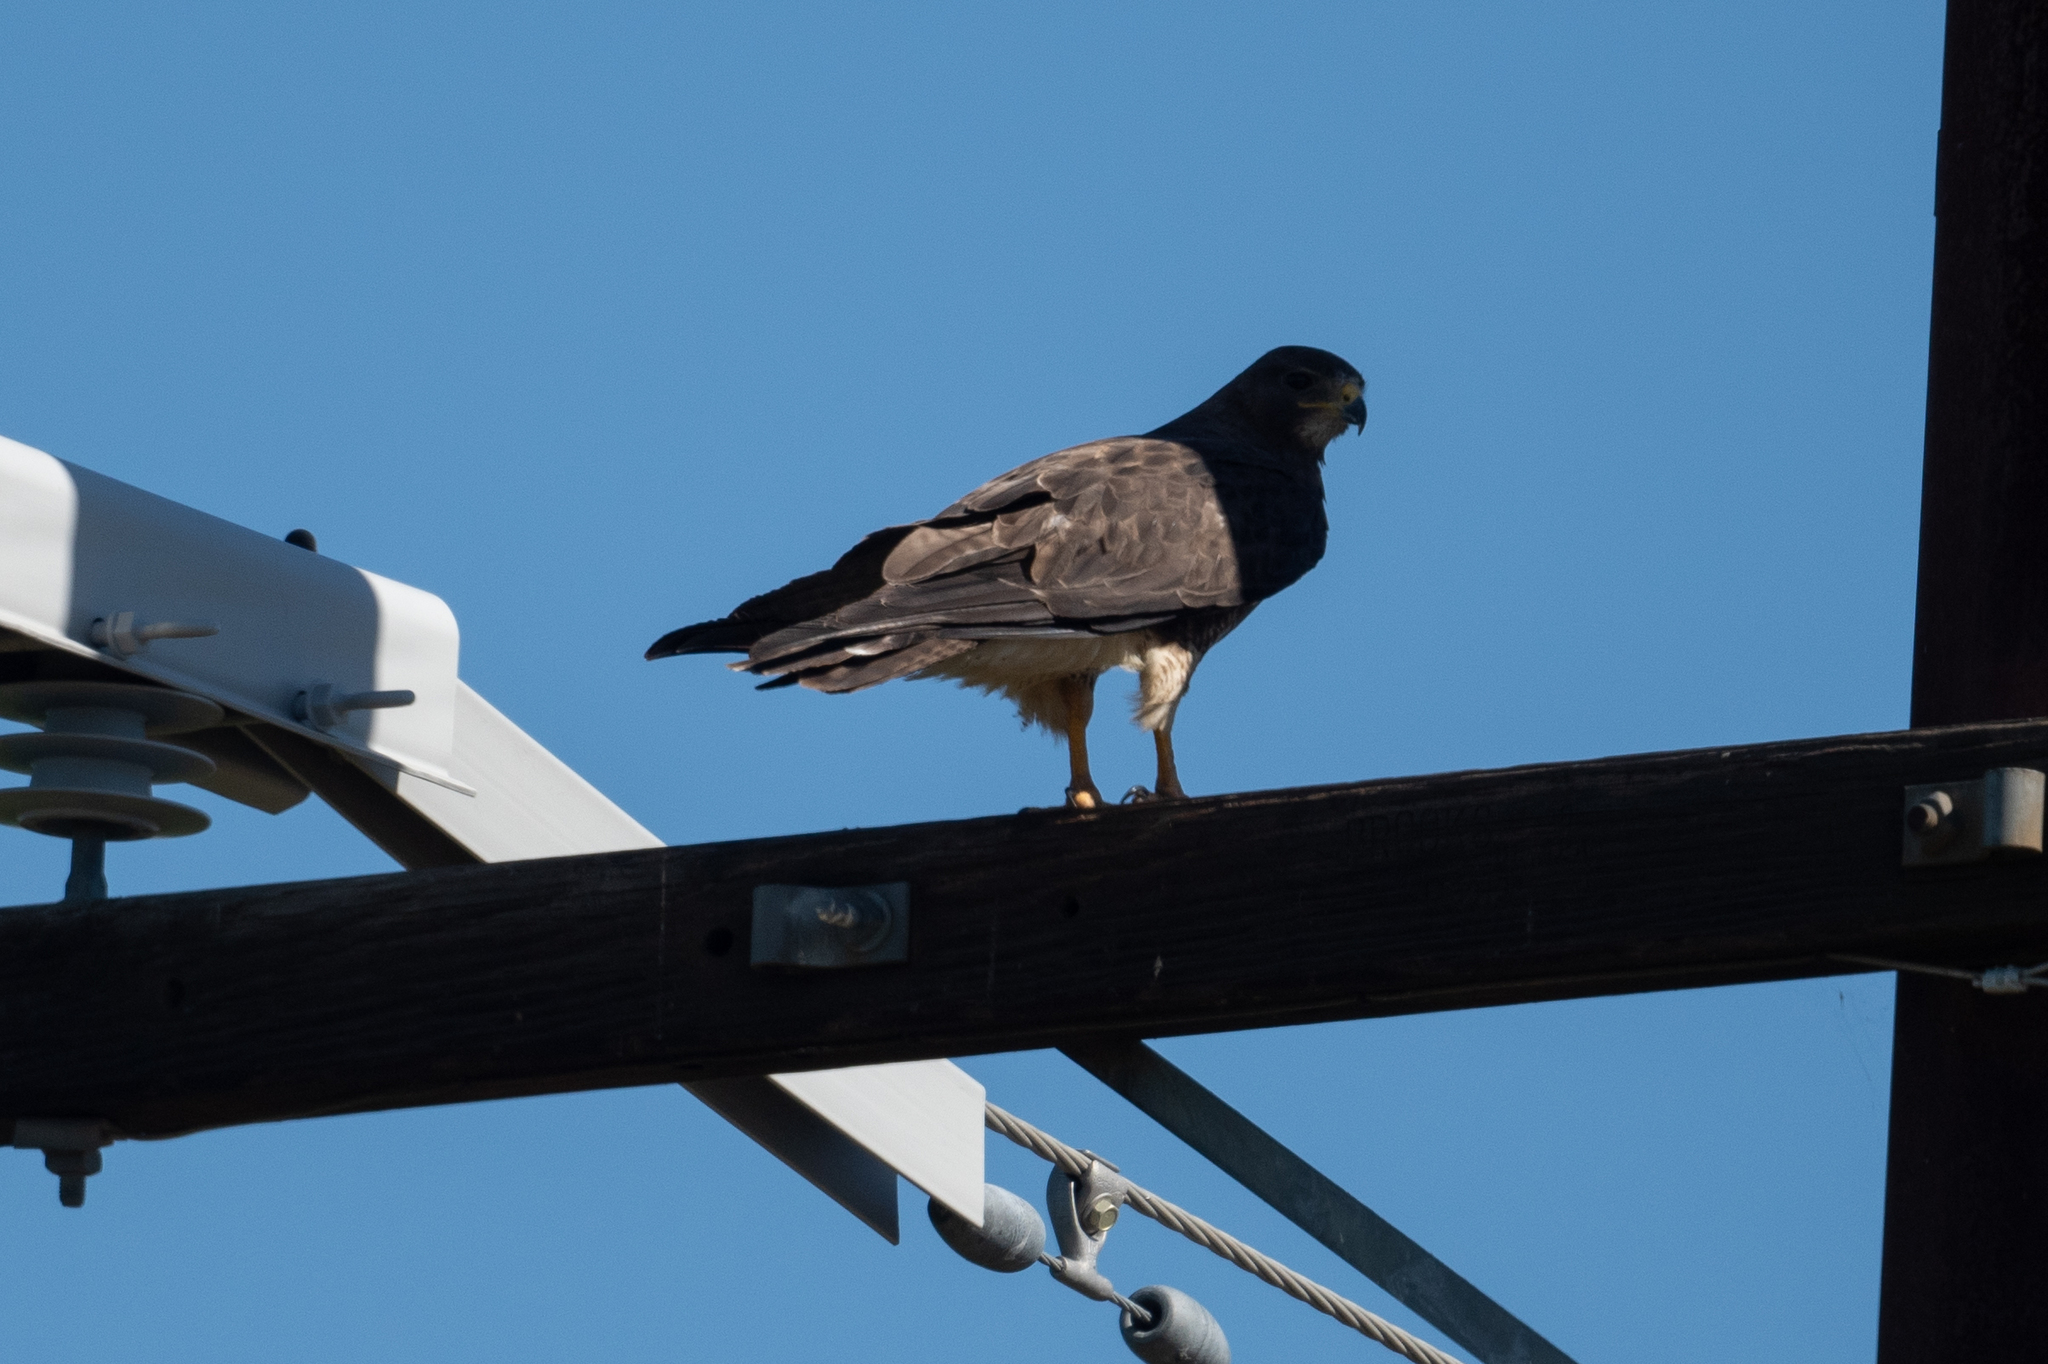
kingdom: Animalia
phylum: Chordata
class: Aves
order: Accipitriformes
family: Accipitridae
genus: Buteo
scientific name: Buteo swainsoni
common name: Swainson's hawk
